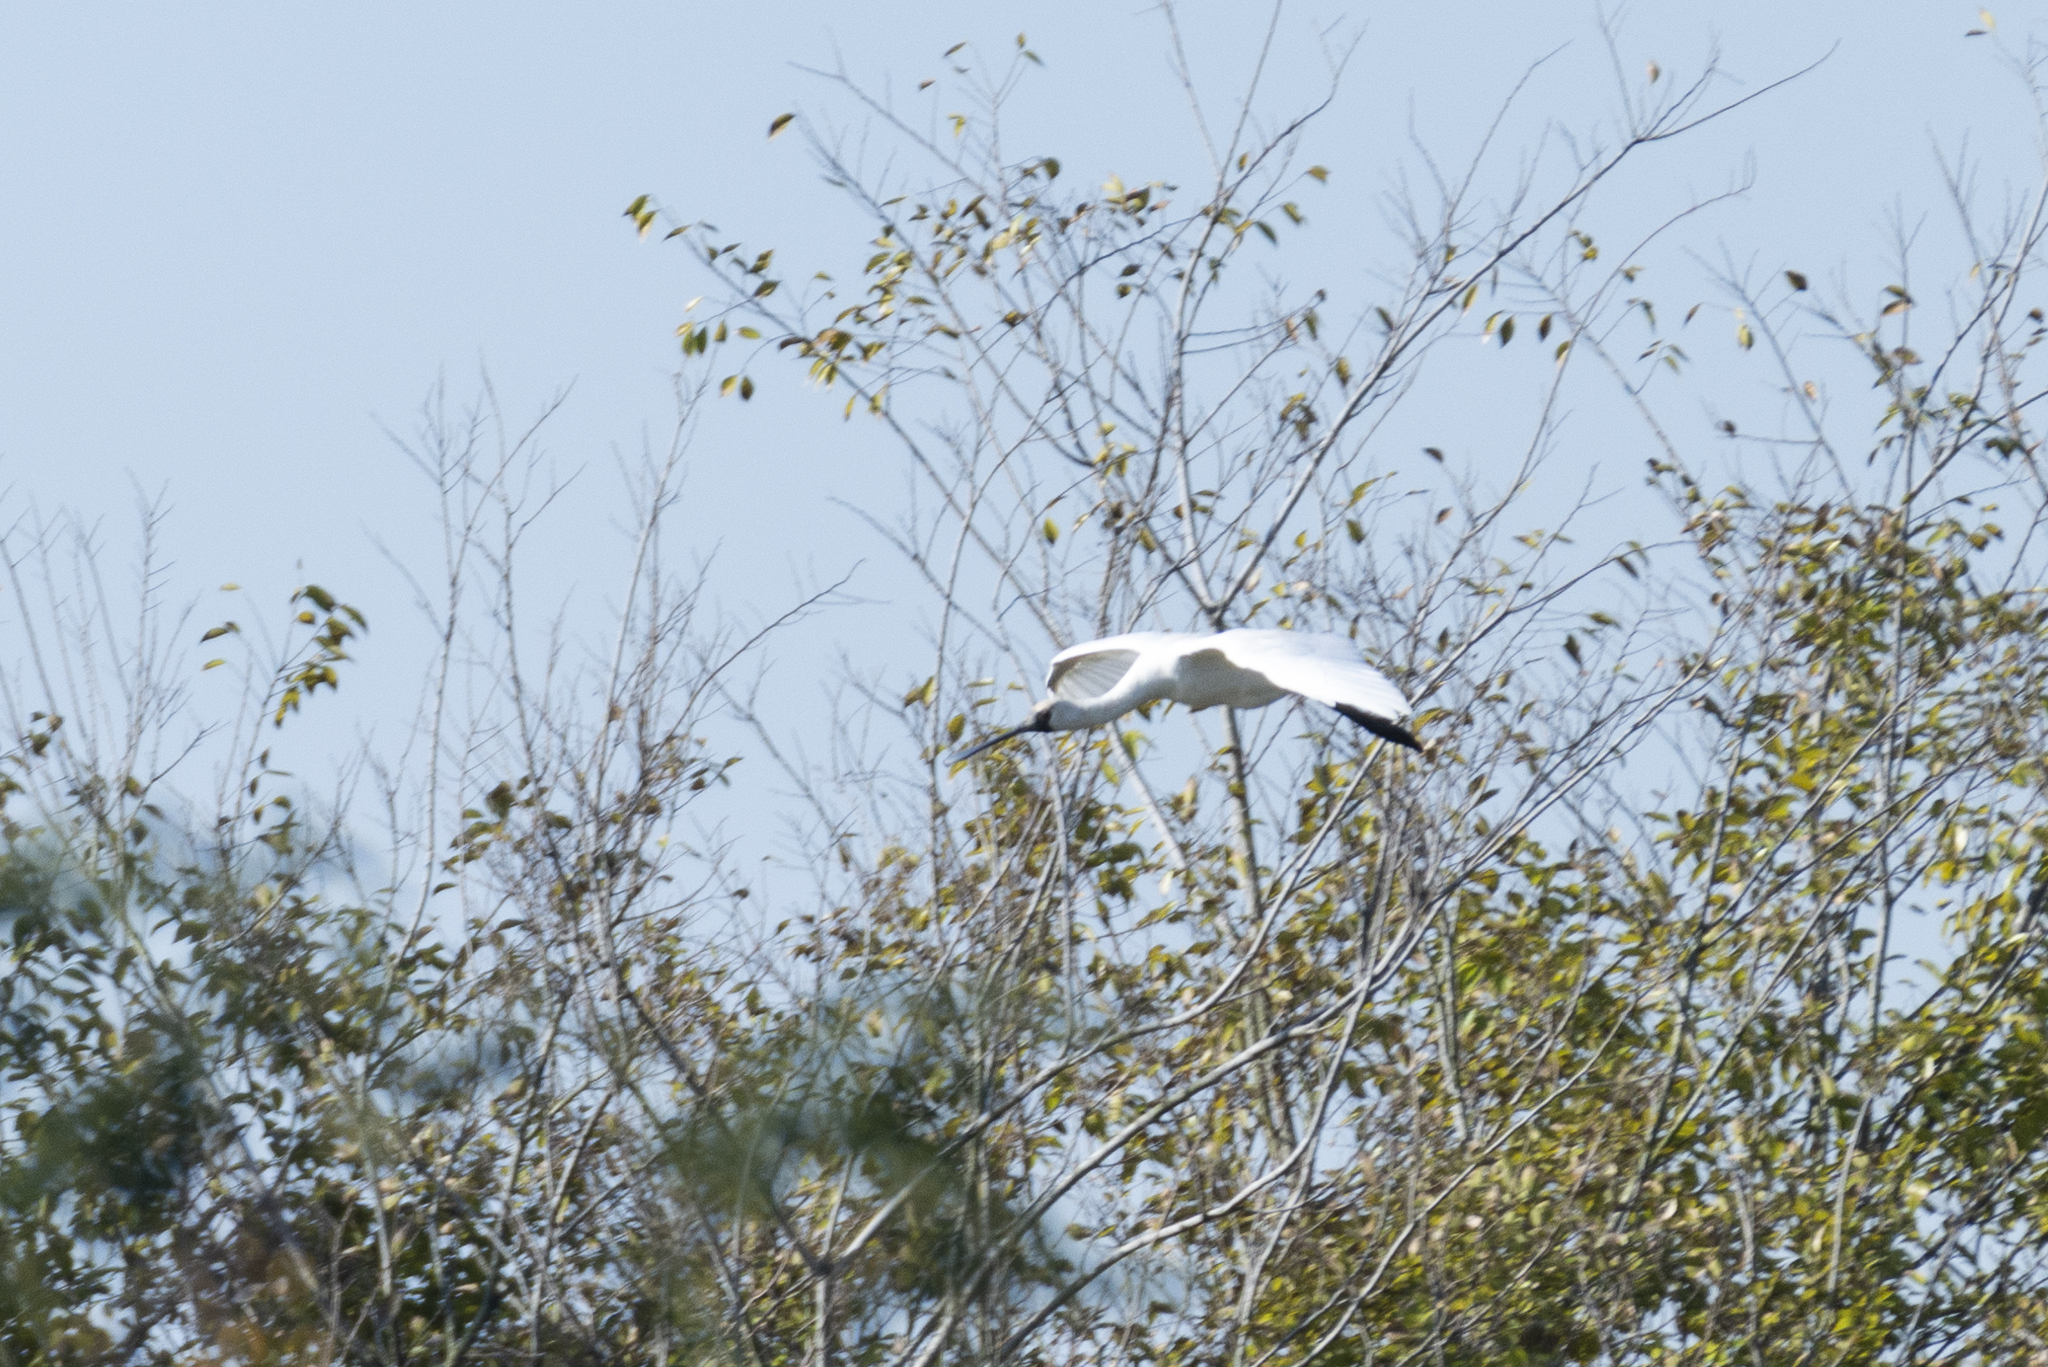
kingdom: Animalia
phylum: Chordata
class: Aves
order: Pelecaniformes
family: Threskiornithidae
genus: Platalea
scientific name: Platalea minor
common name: Black-faced spoonbill
